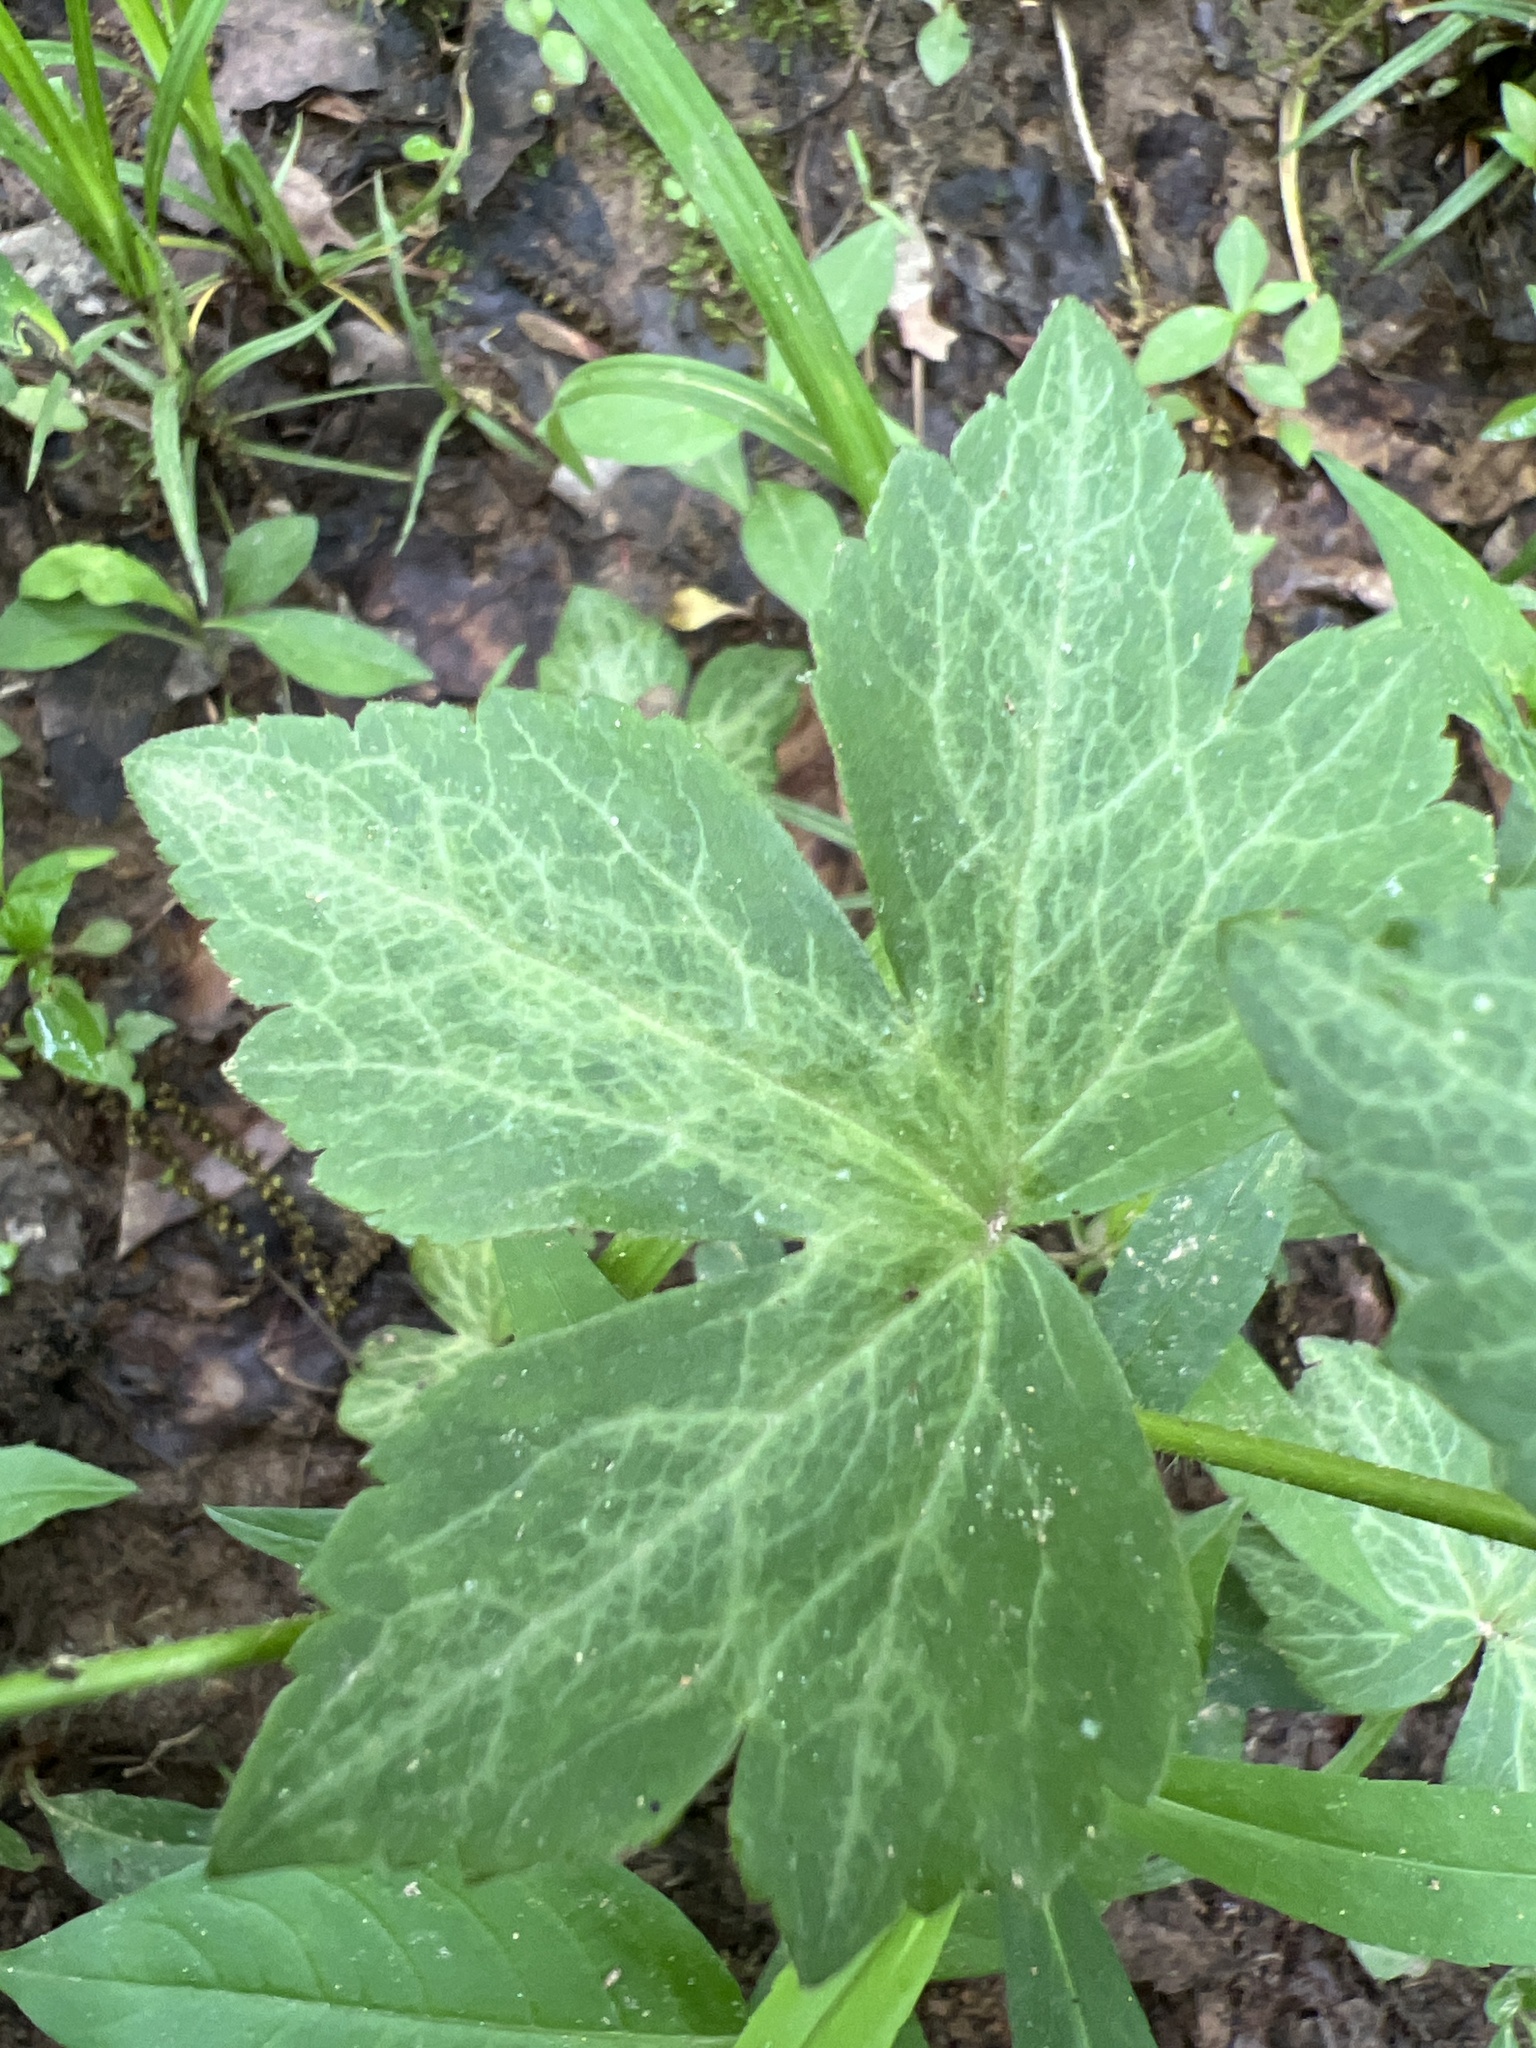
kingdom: Plantae
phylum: Tracheophyta
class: Magnoliopsida
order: Ranunculales
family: Ranunculaceae
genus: Ranunculus
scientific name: Ranunculus recurvatus
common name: Blisterwort
